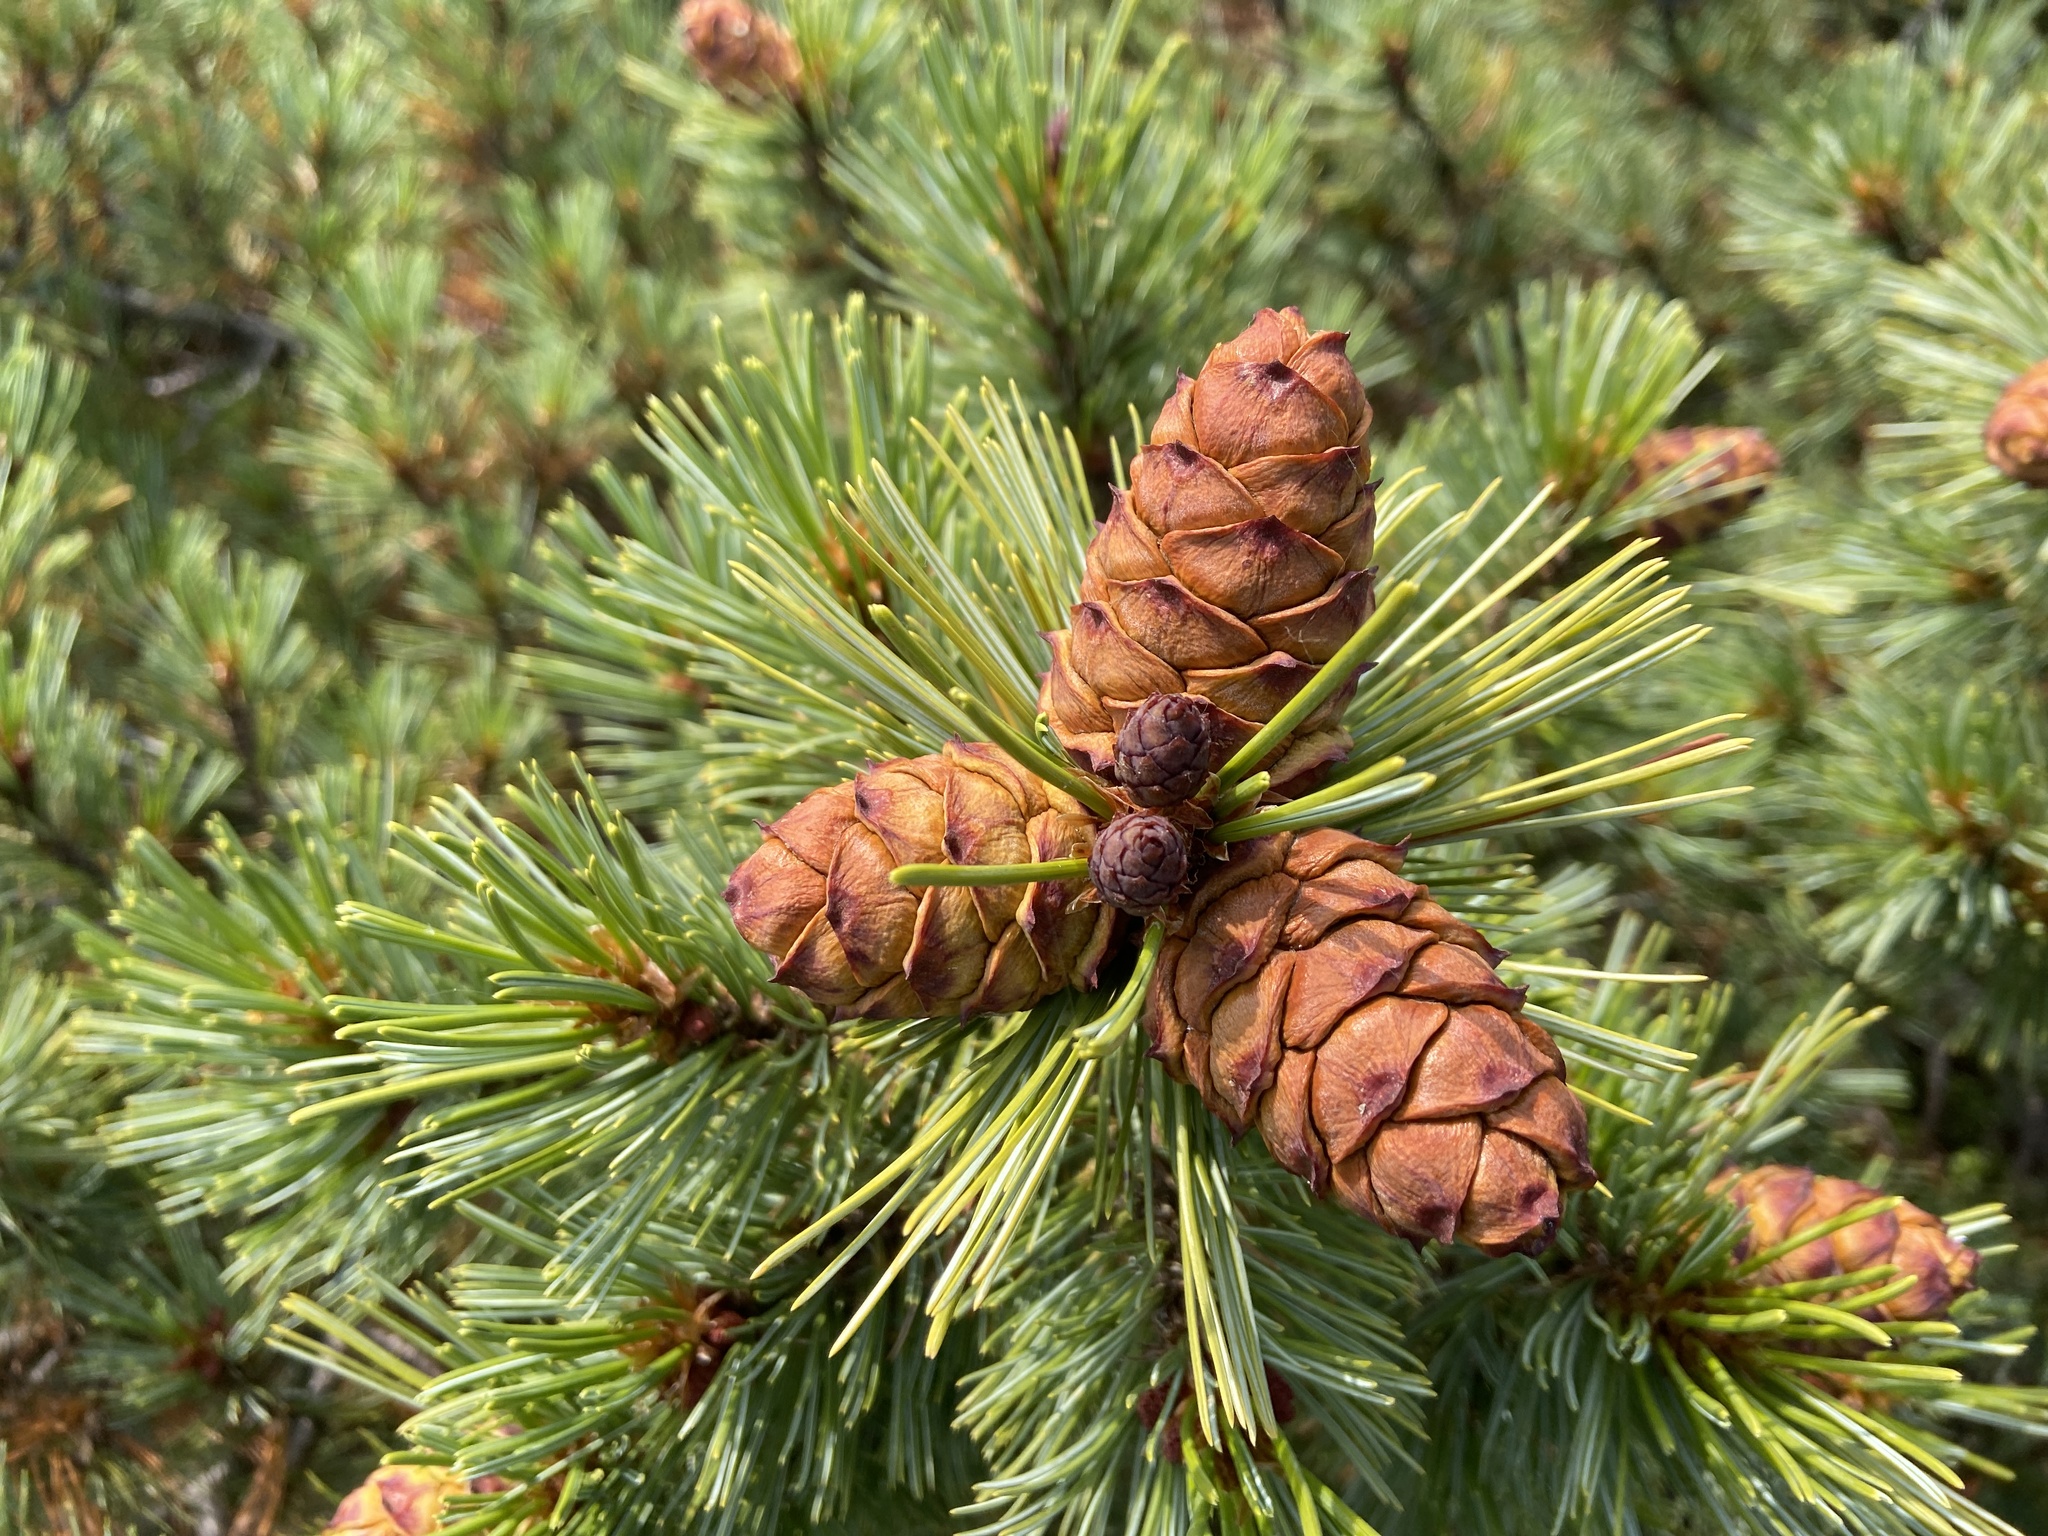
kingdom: Plantae
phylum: Tracheophyta
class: Pinopsida
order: Pinales
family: Pinaceae
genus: Pinus
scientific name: Pinus pumila
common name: Dwarf siberian pine
